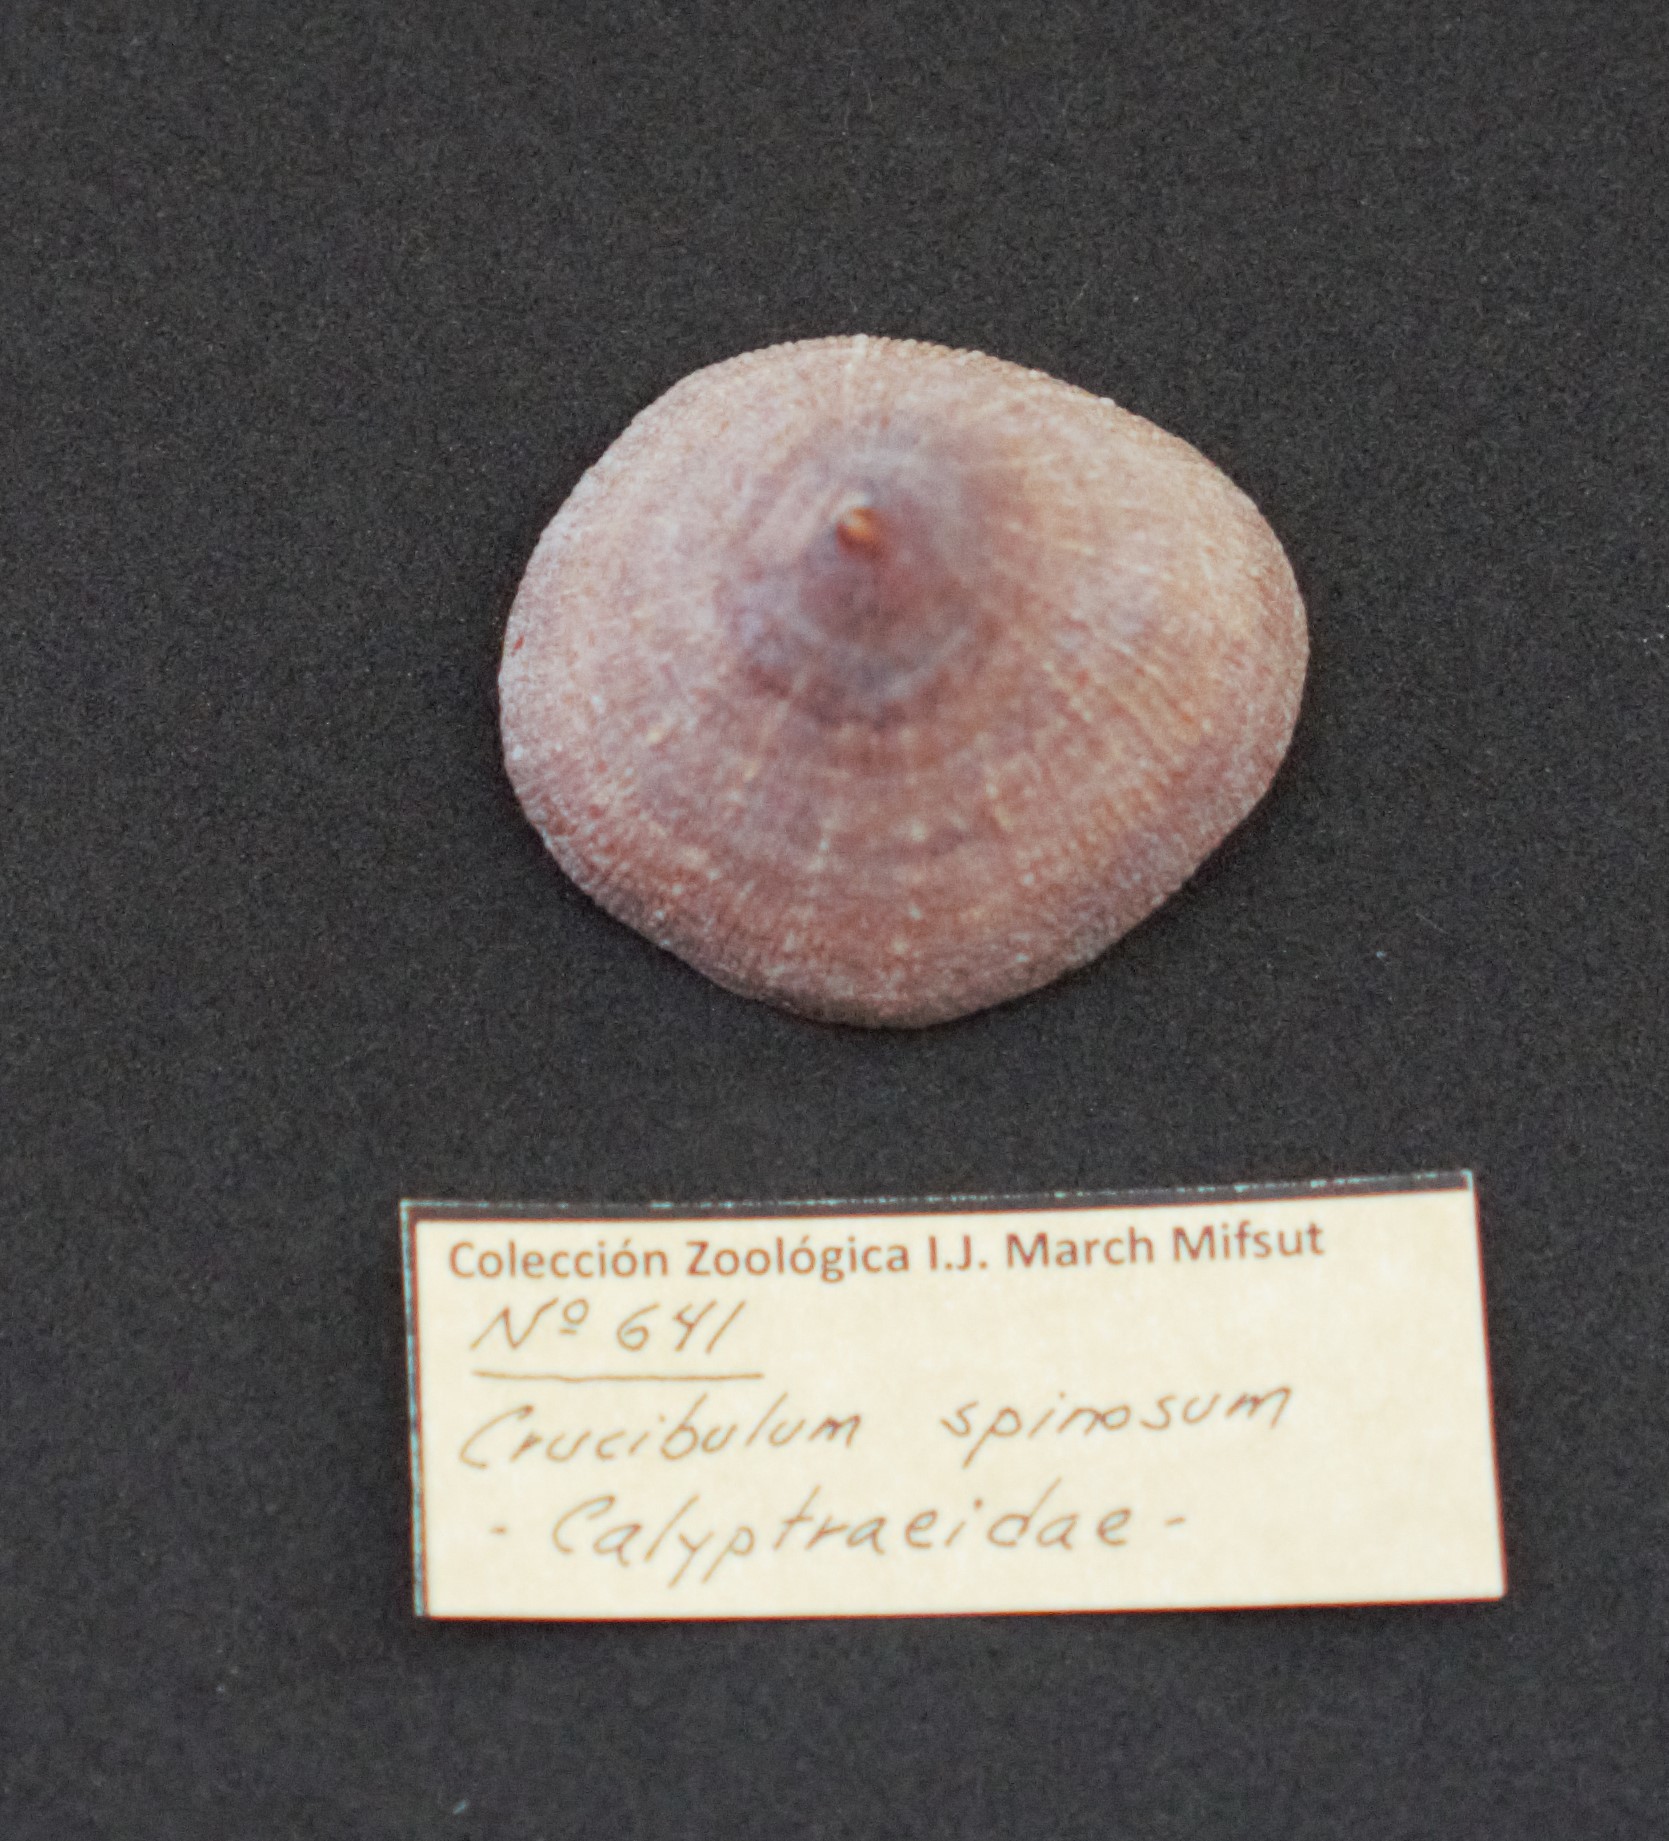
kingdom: Animalia
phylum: Mollusca
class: Gastropoda
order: Littorinimorpha
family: Calyptraeidae
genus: Crucibulum
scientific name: Crucibulum spinosum
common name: Spiny cup-and-saucer
